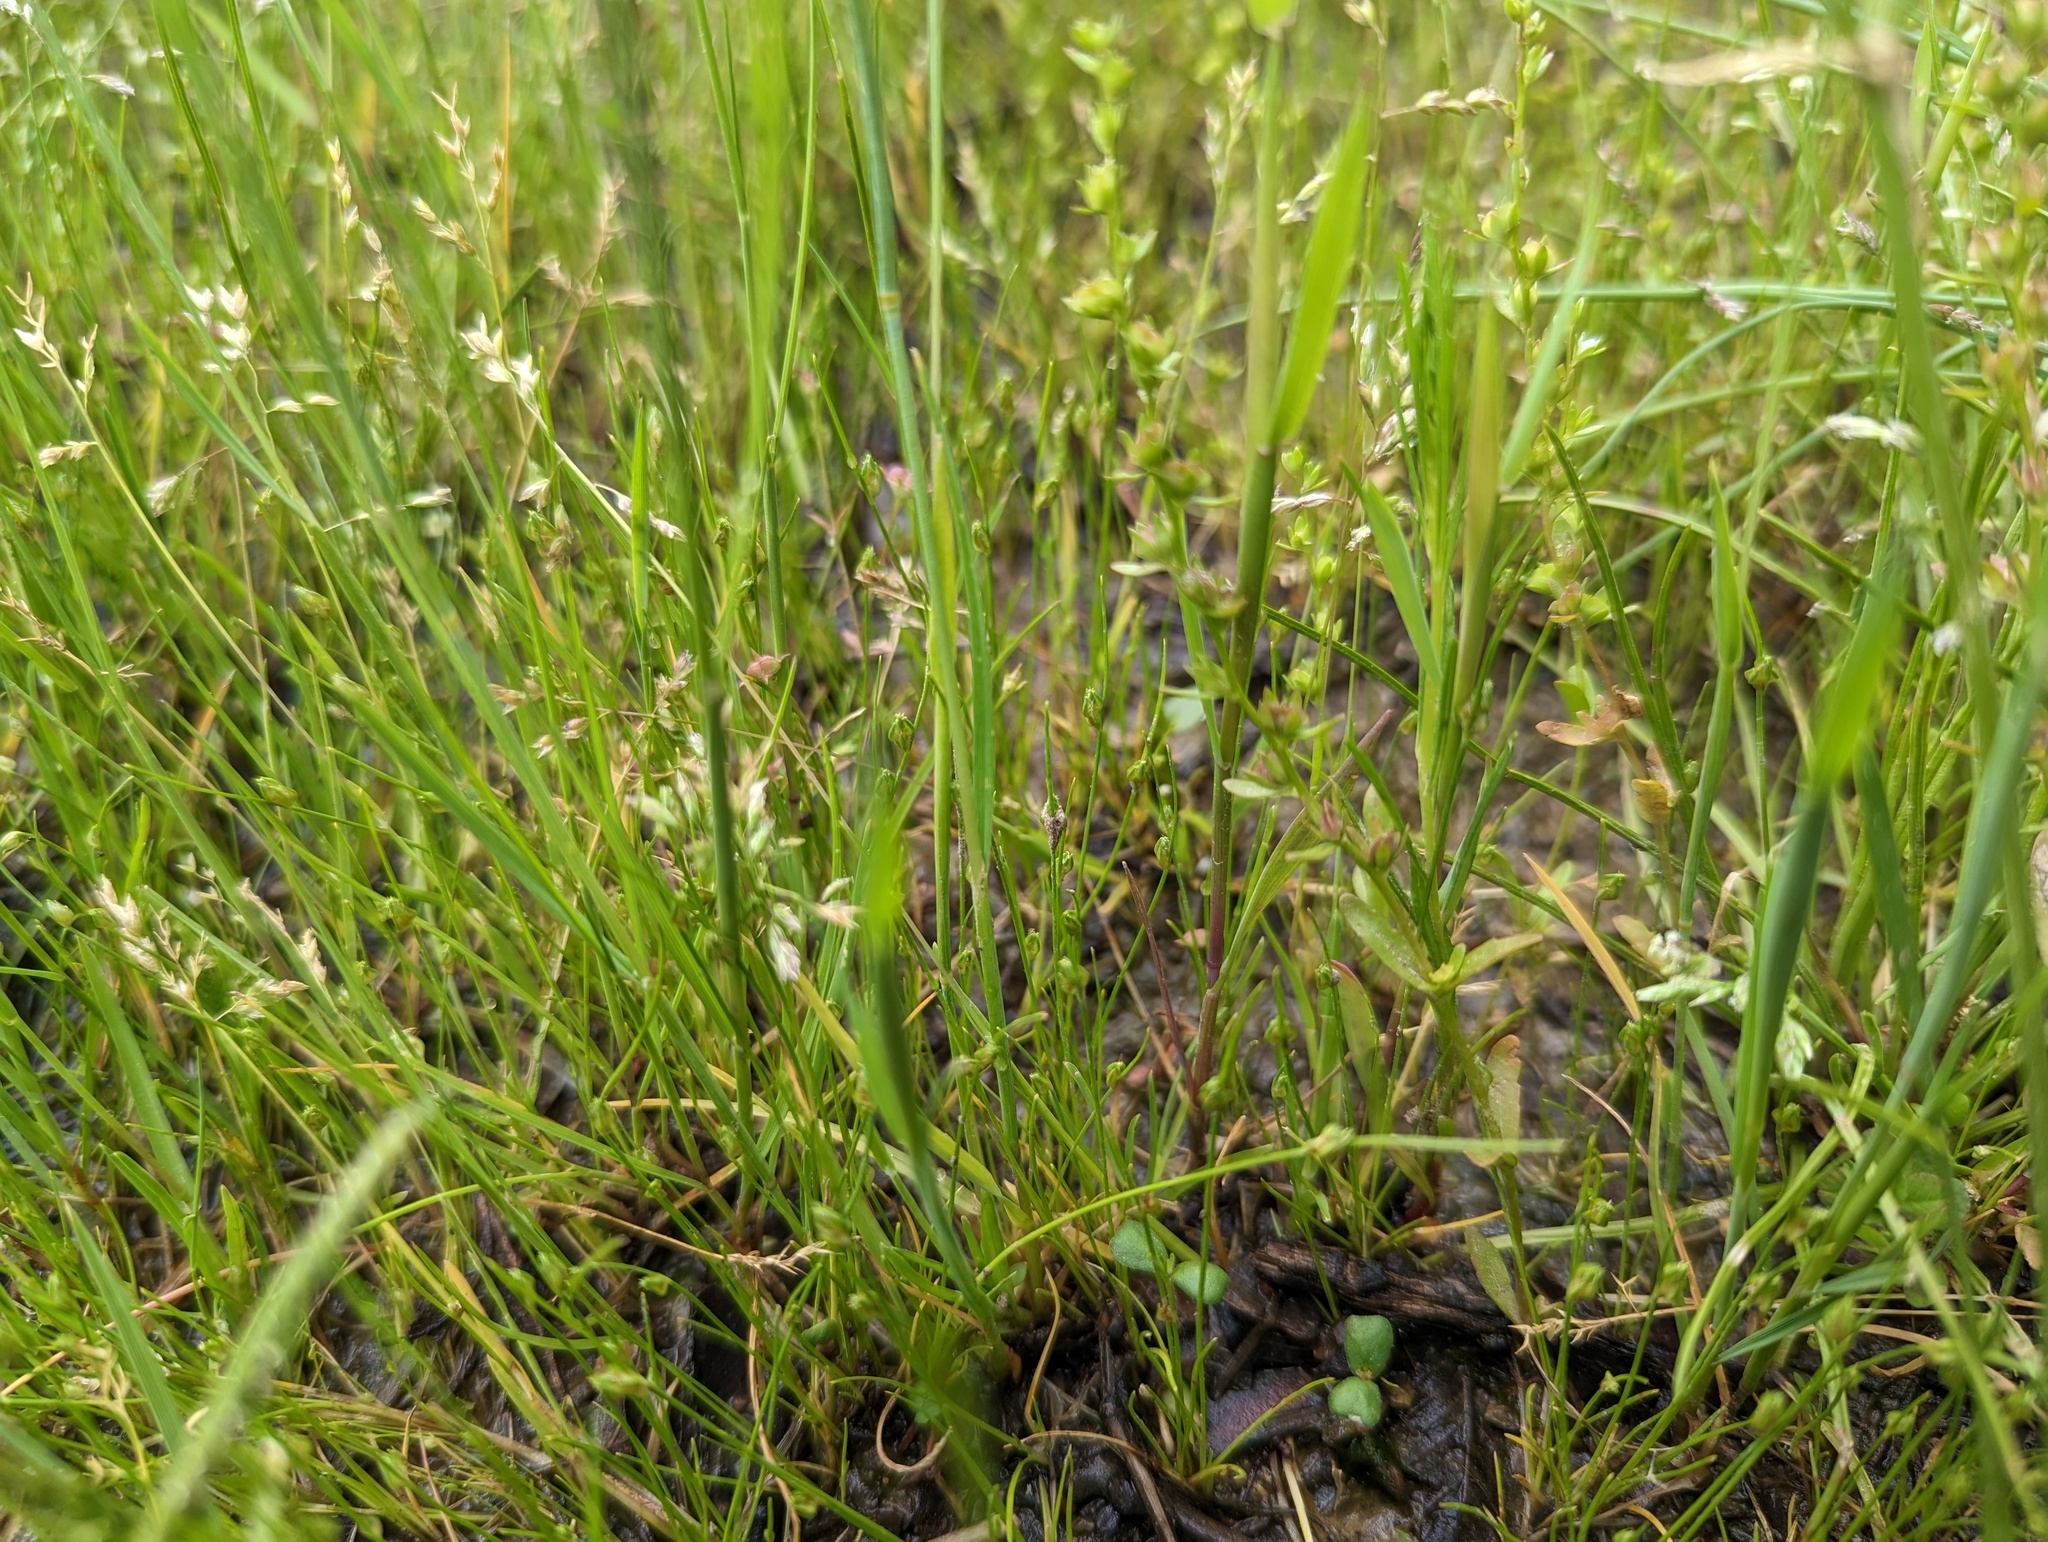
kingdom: Plantae
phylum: Tracheophyta
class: Liliopsida
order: Poales
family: Poaceae
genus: Alopecurus
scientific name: Alopecurus carolinianus
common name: Tufted foxtail
